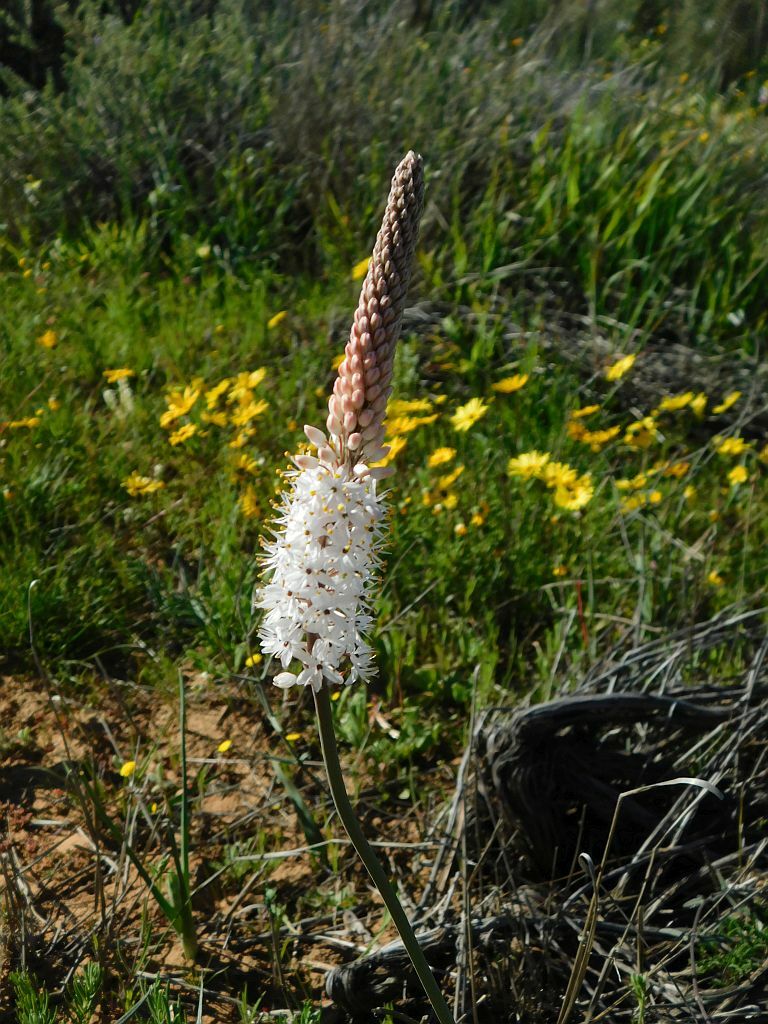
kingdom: Plantae
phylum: Tracheophyta
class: Liliopsida
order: Asparagales
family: Asphodelaceae
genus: Bulbinella
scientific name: Bulbinella cauda-felis
